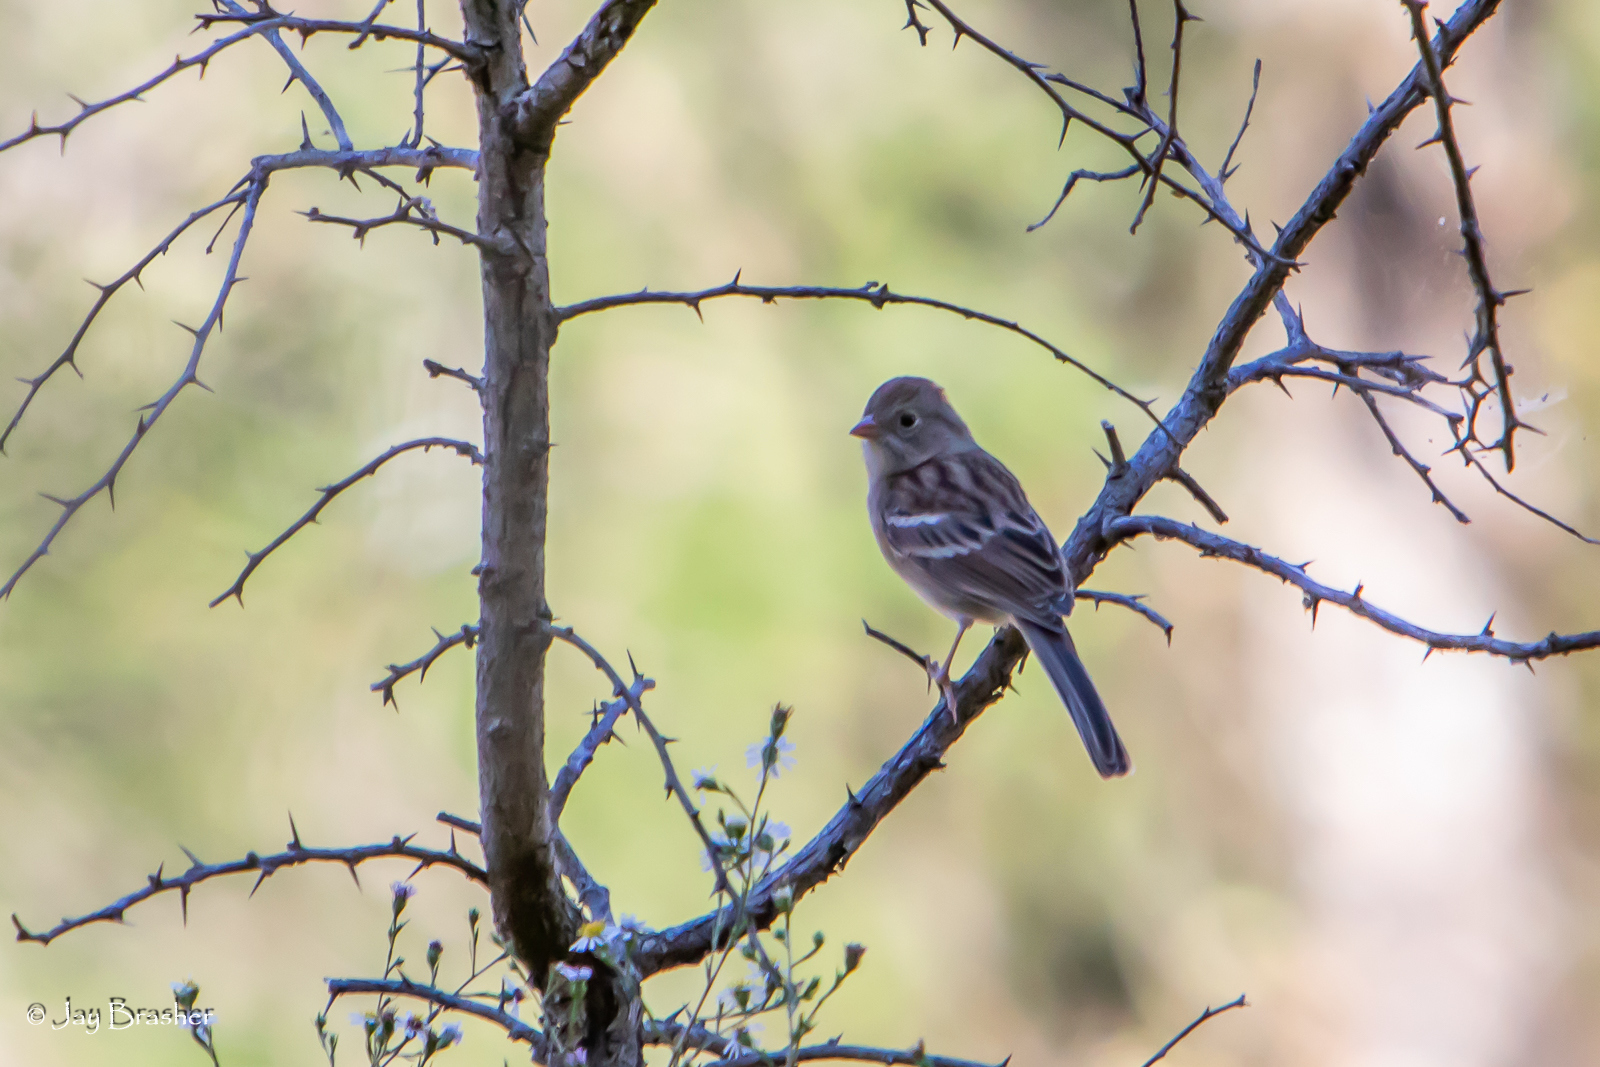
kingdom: Animalia
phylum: Chordata
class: Aves
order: Passeriformes
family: Passerellidae
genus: Spizella
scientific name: Spizella pusilla
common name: Field sparrow
